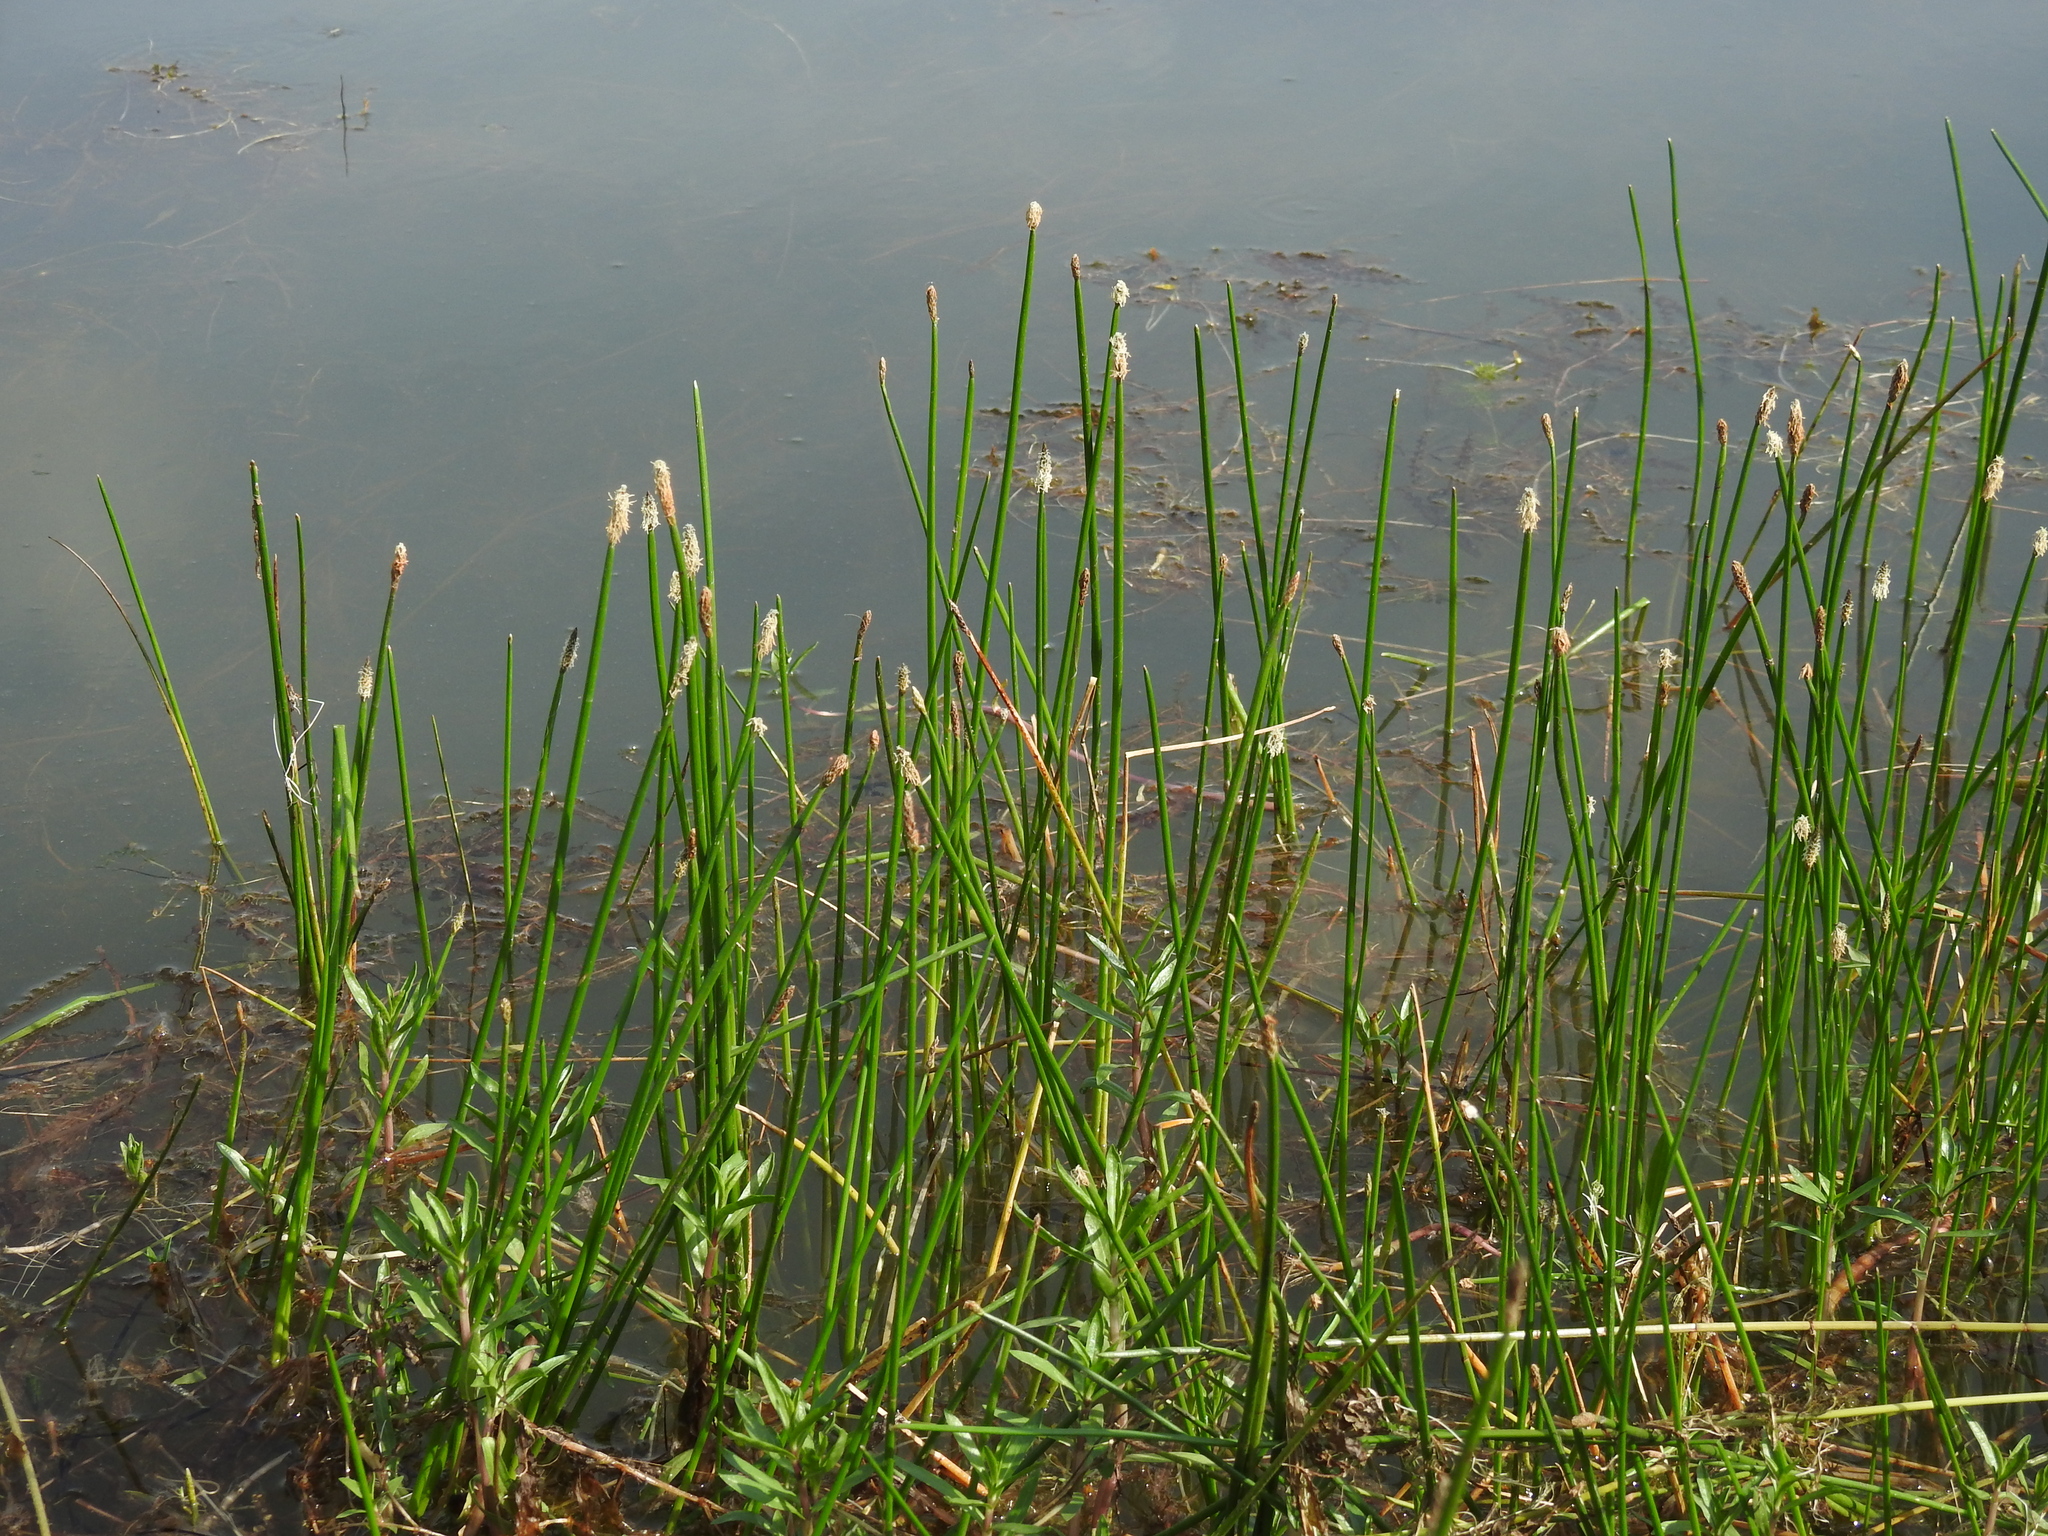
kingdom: Plantae
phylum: Tracheophyta
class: Liliopsida
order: Poales
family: Cyperaceae
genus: Eleocharis
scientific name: Eleocharis palustris
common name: Common spike-rush
